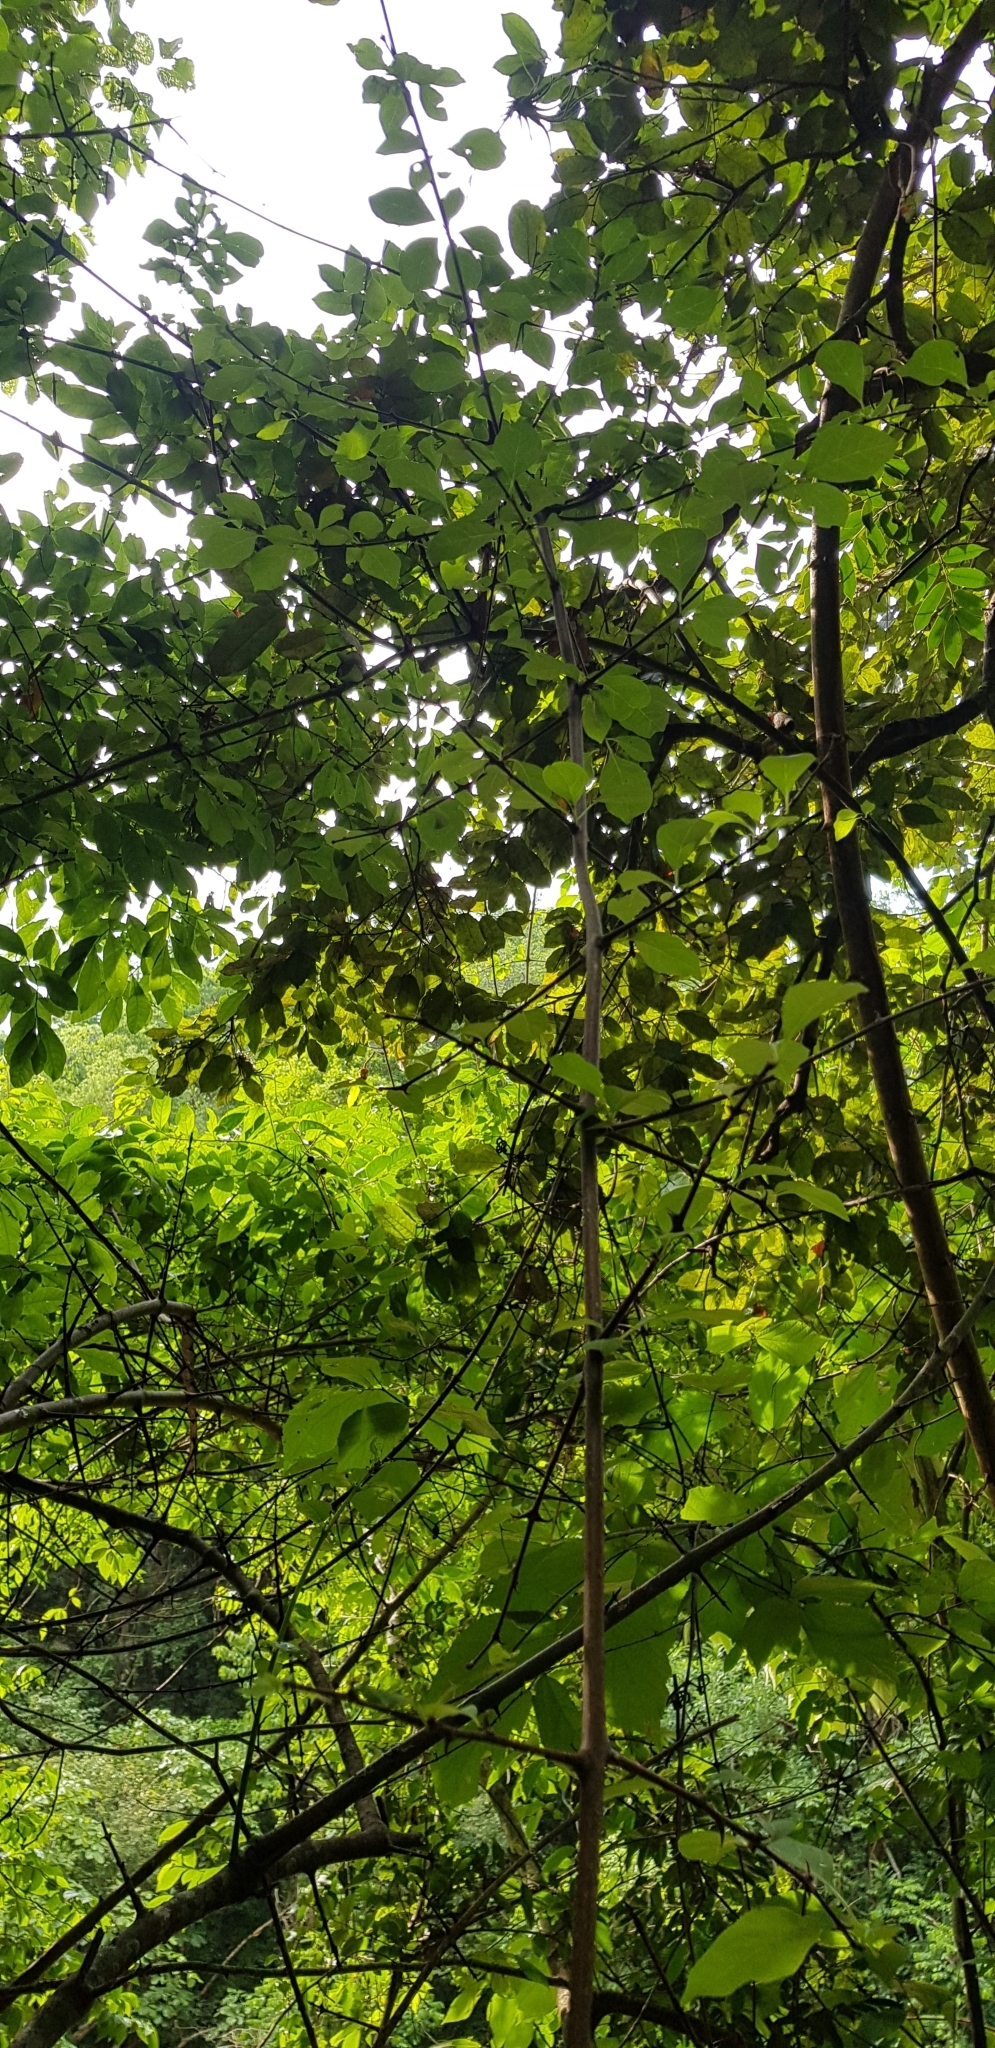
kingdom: Plantae
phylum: Tracheophyta
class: Magnoliopsida
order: Caryophyllales
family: Nyctaginaceae
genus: Pisonia
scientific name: Pisonia aculeata
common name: Cockspur vine
